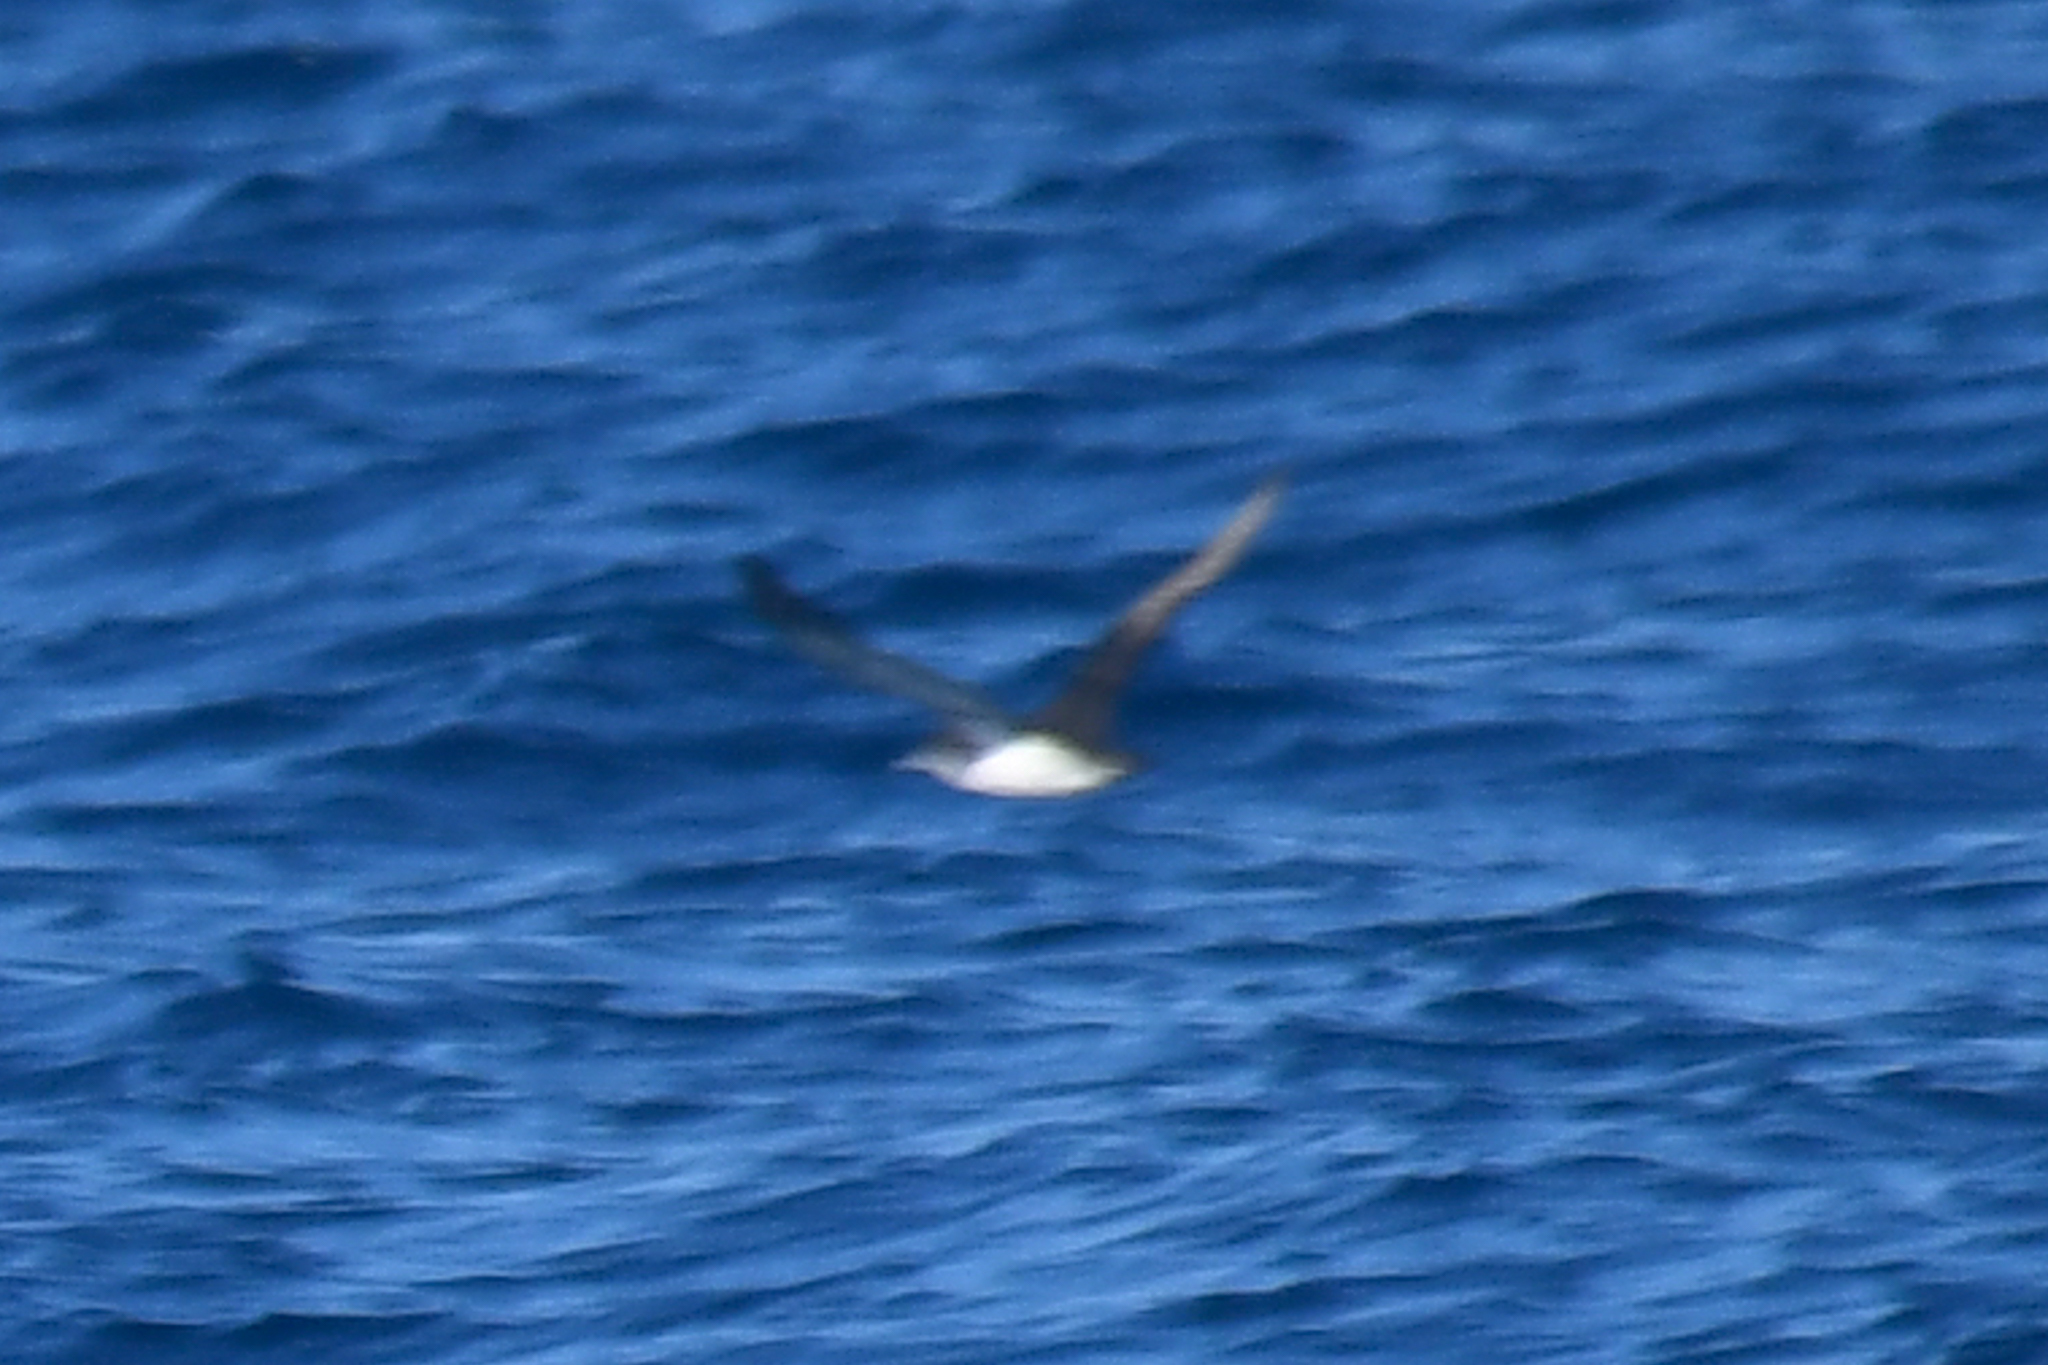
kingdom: Animalia
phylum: Chordata
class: Aves
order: Procellariiformes
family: Procellariidae
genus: Puffinus
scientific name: Puffinus opisthomelas
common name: Black-vented shearwater
